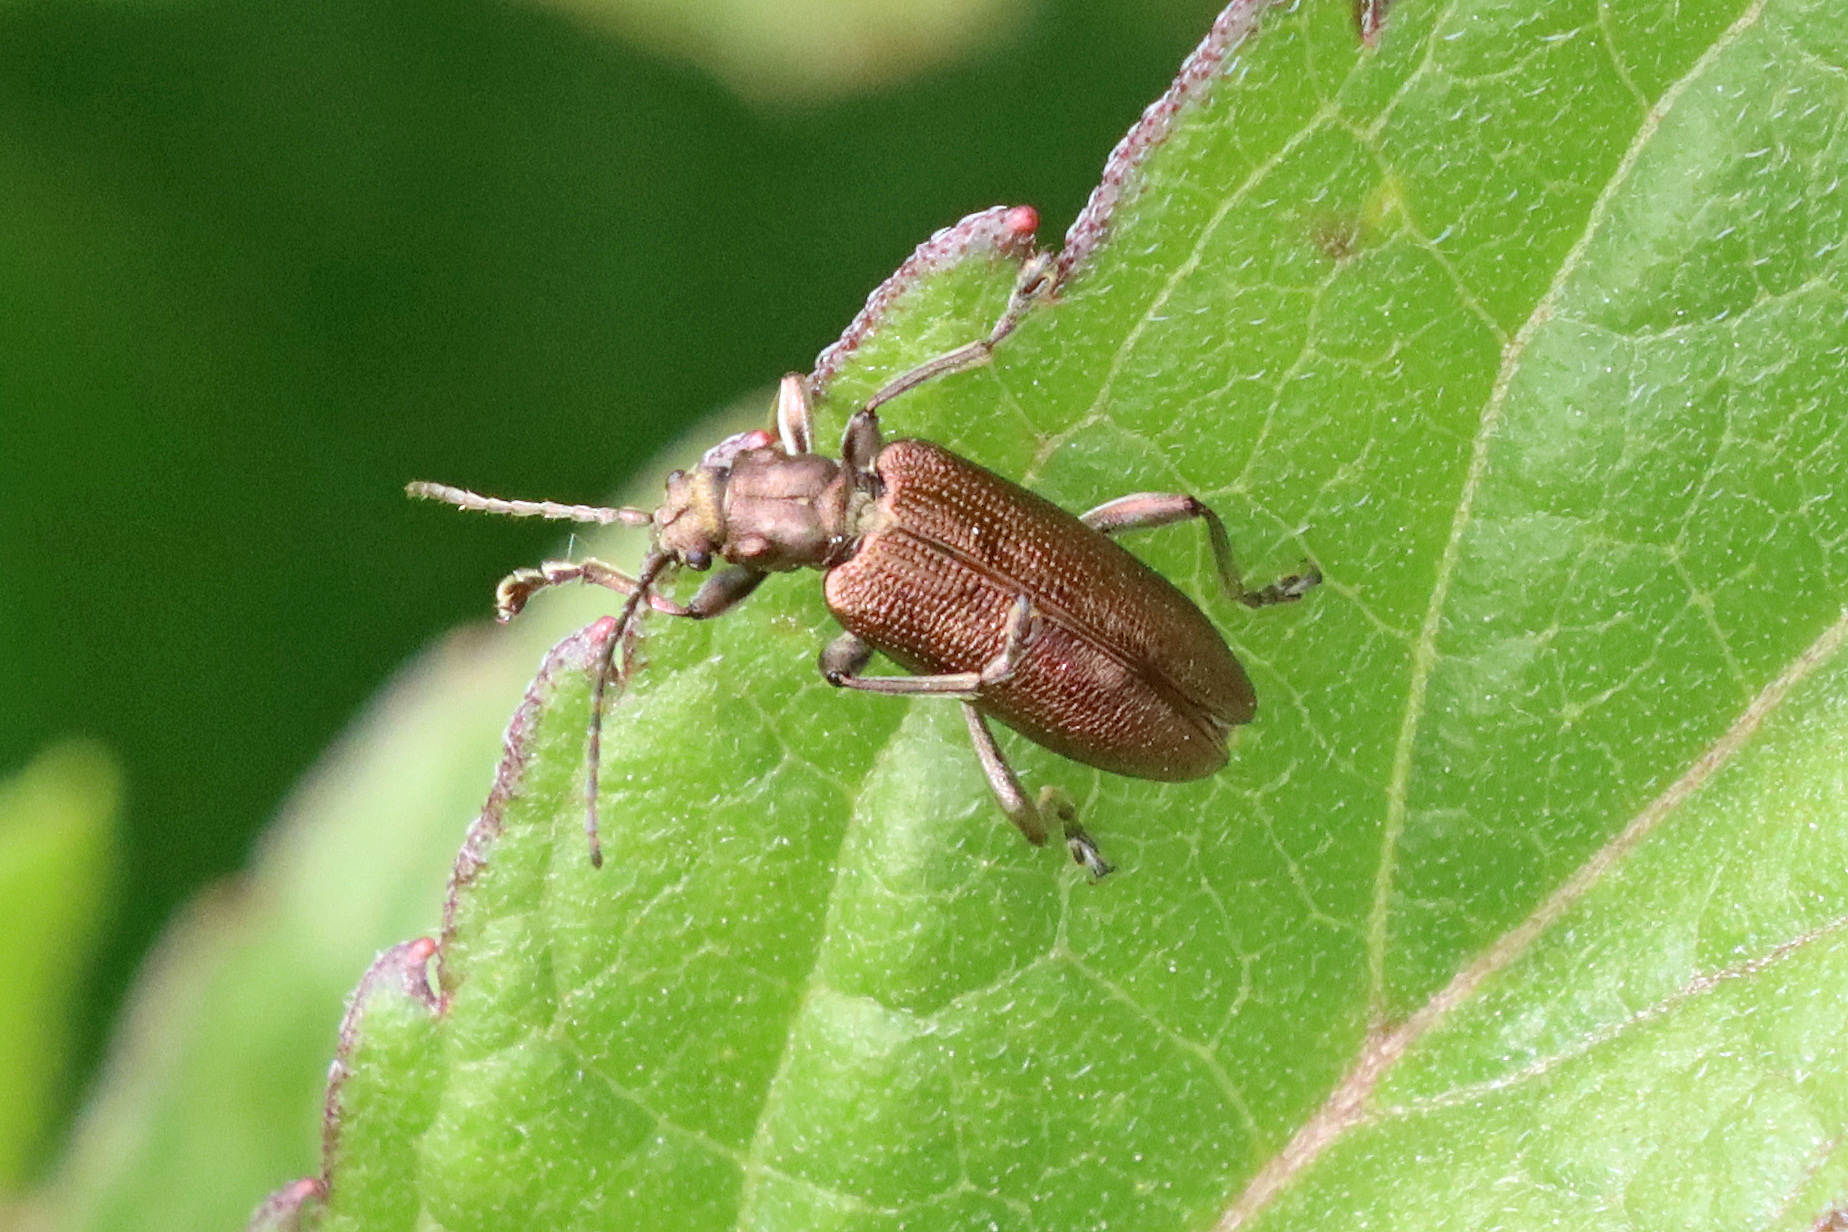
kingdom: Animalia
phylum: Arthropoda
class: Insecta
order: Coleoptera
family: Chrysomelidae
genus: Plateumaris
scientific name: Plateumaris sericea
